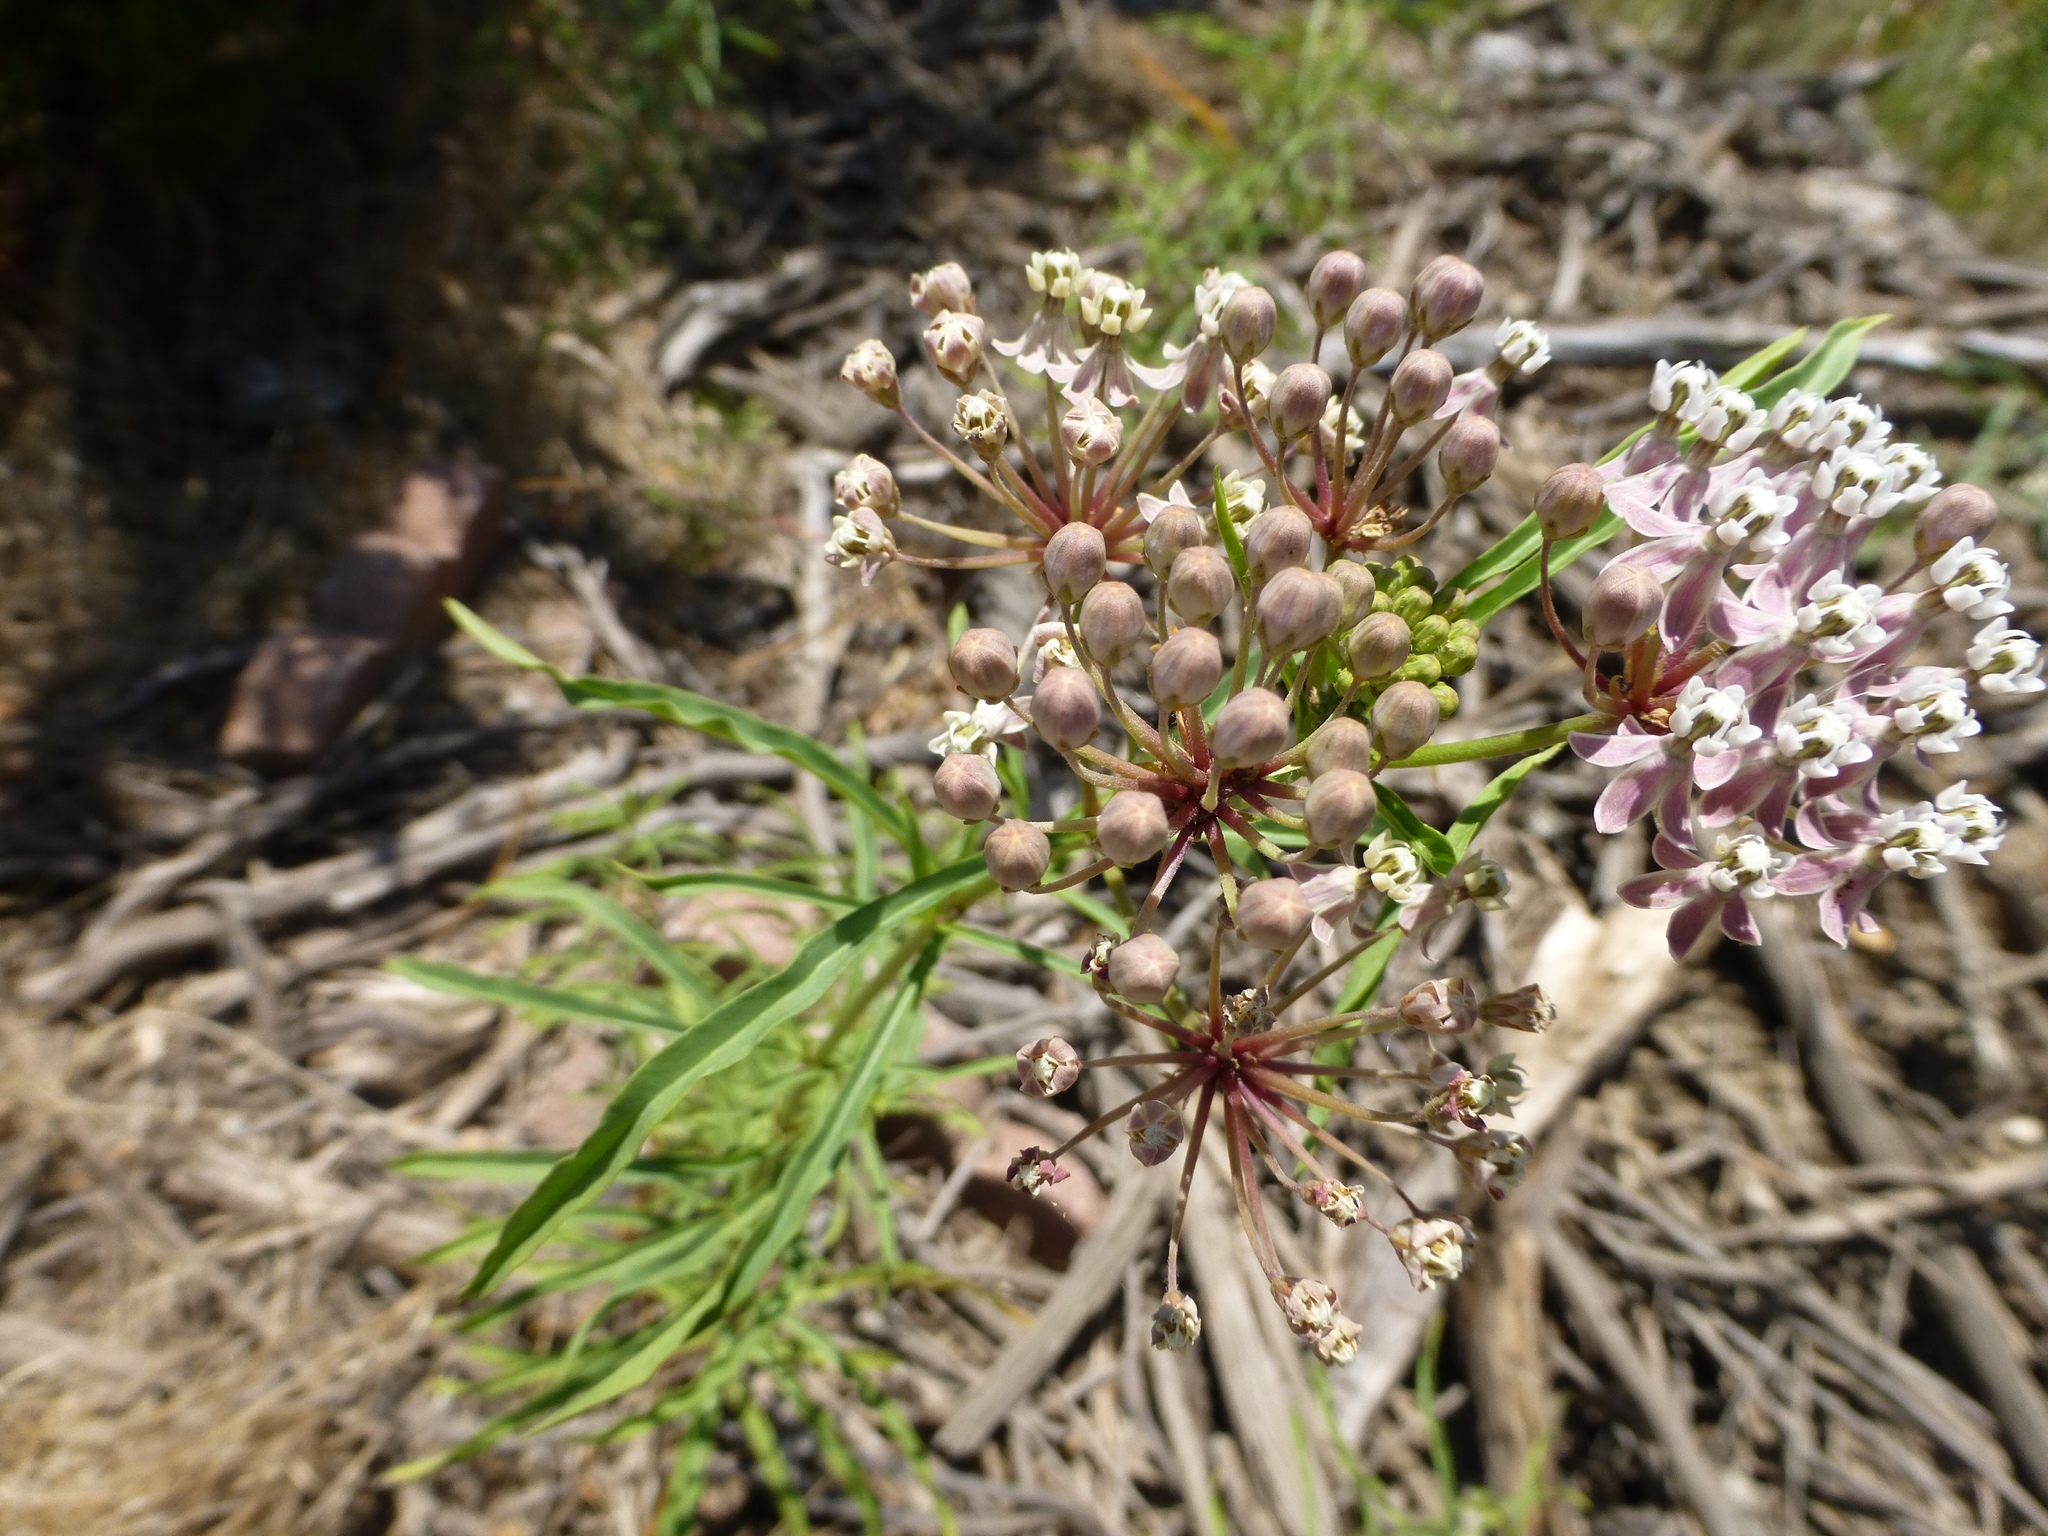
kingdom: Plantae
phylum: Tracheophyta
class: Magnoliopsida
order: Gentianales
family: Apocynaceae
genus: Asclepias
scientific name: Asclepias fascicularis
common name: Mexican milkweed
